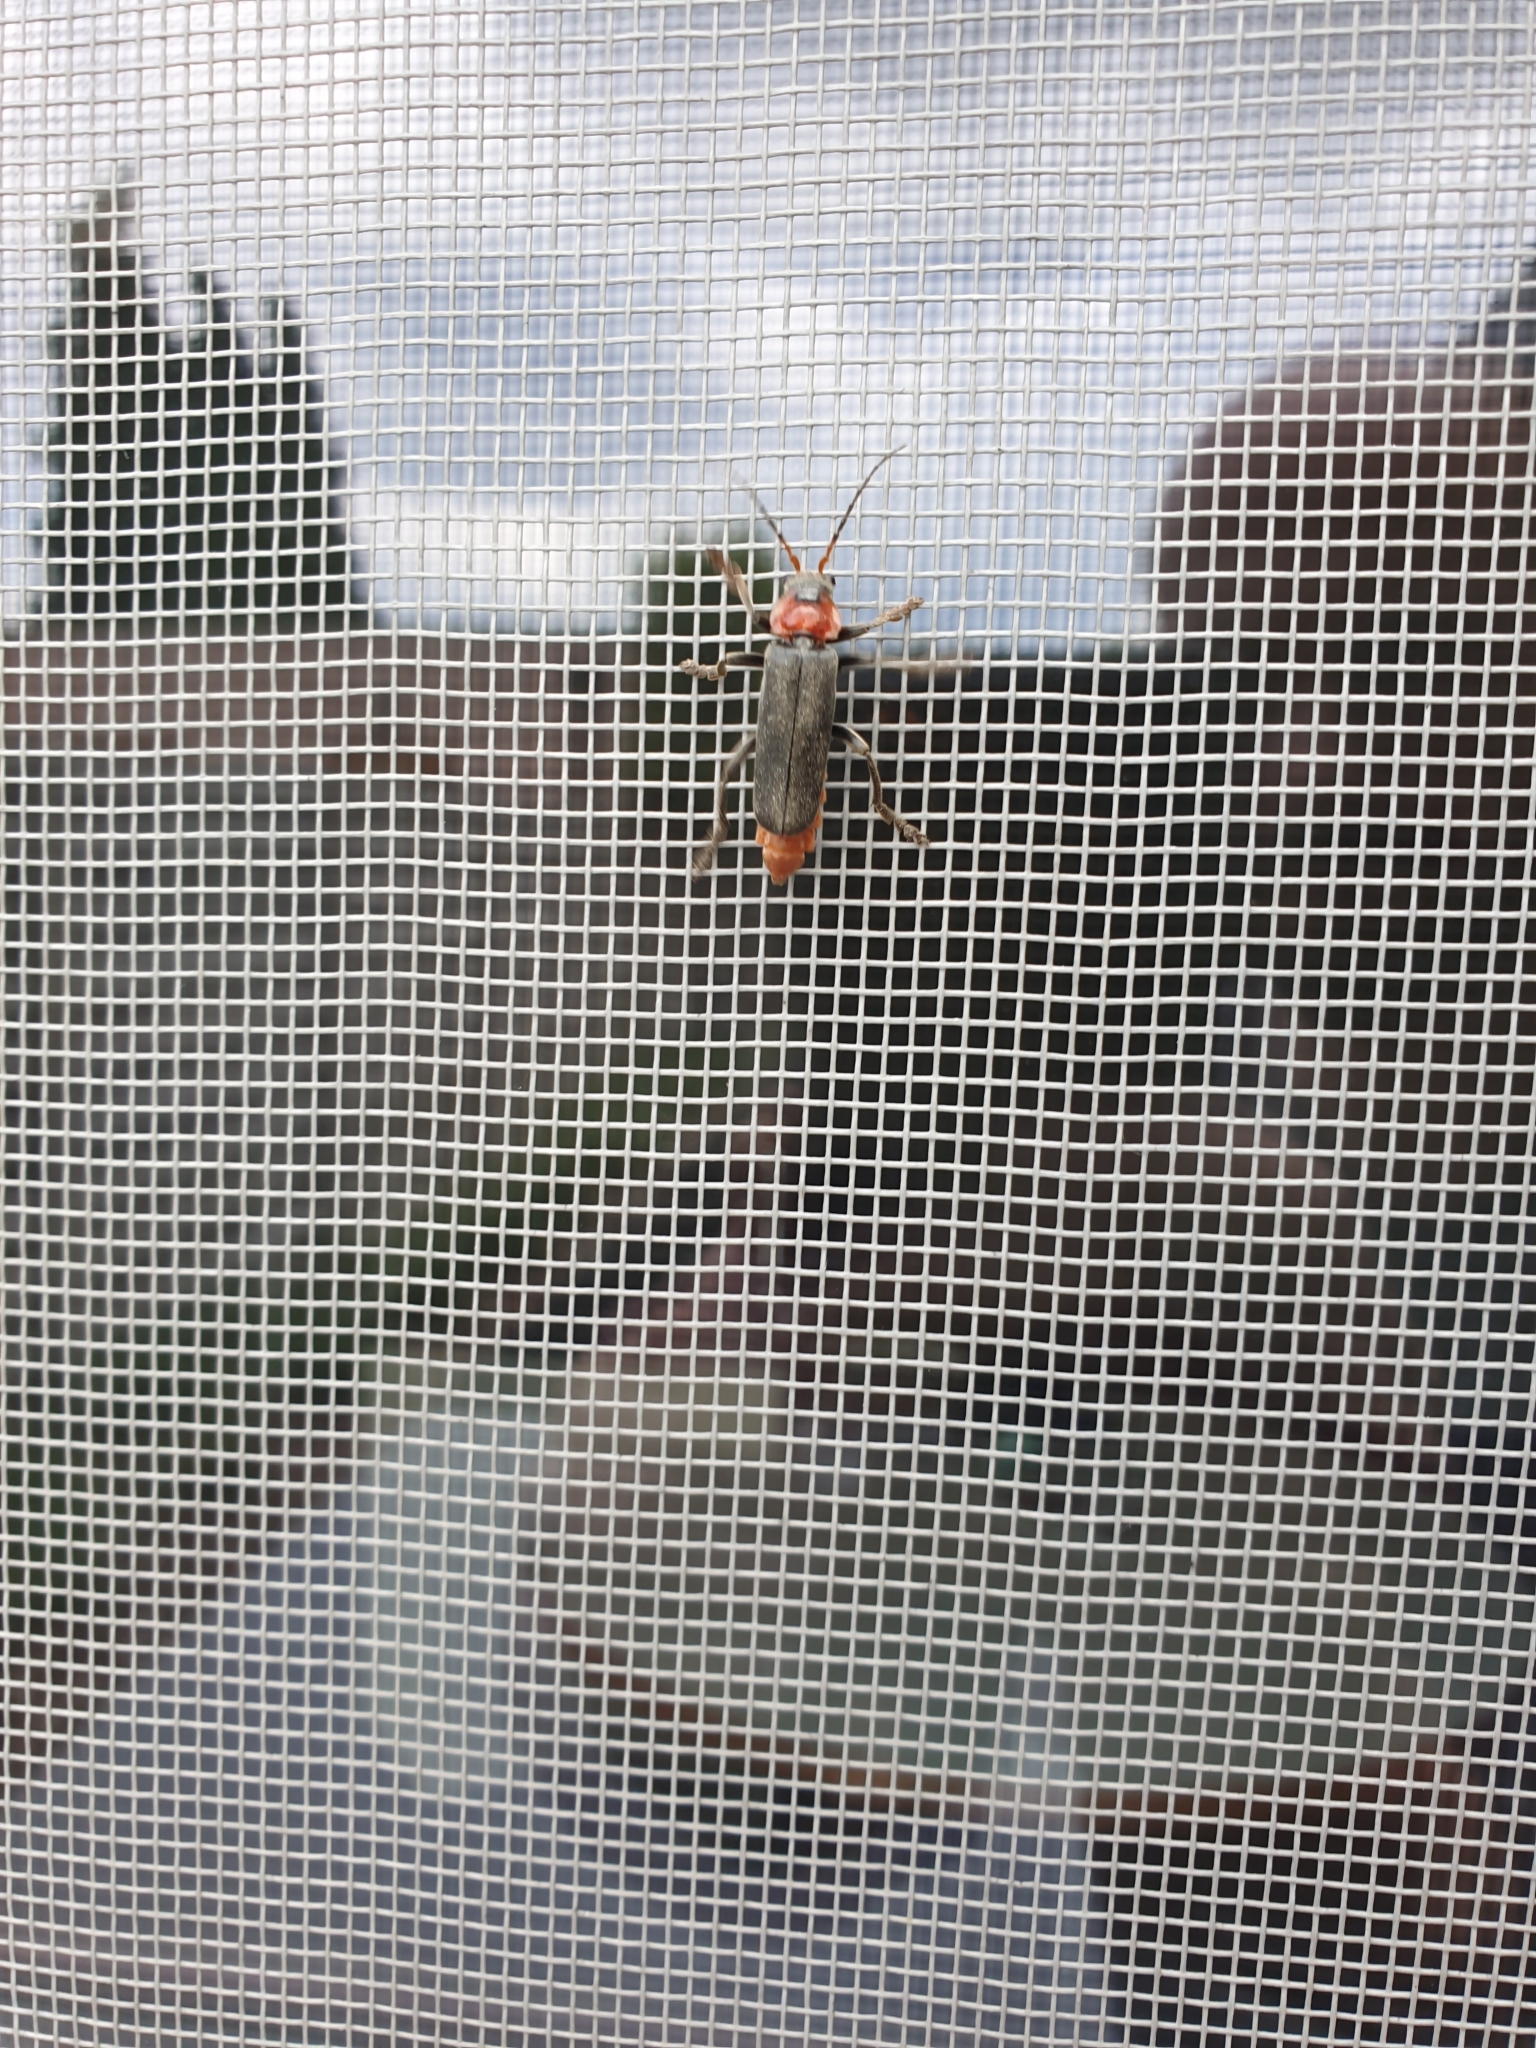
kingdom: Animalia
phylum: Arthropoda
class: Insecta
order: Coleoptera
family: Cantharidae
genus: Cantharis
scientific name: Cantharis fusca
